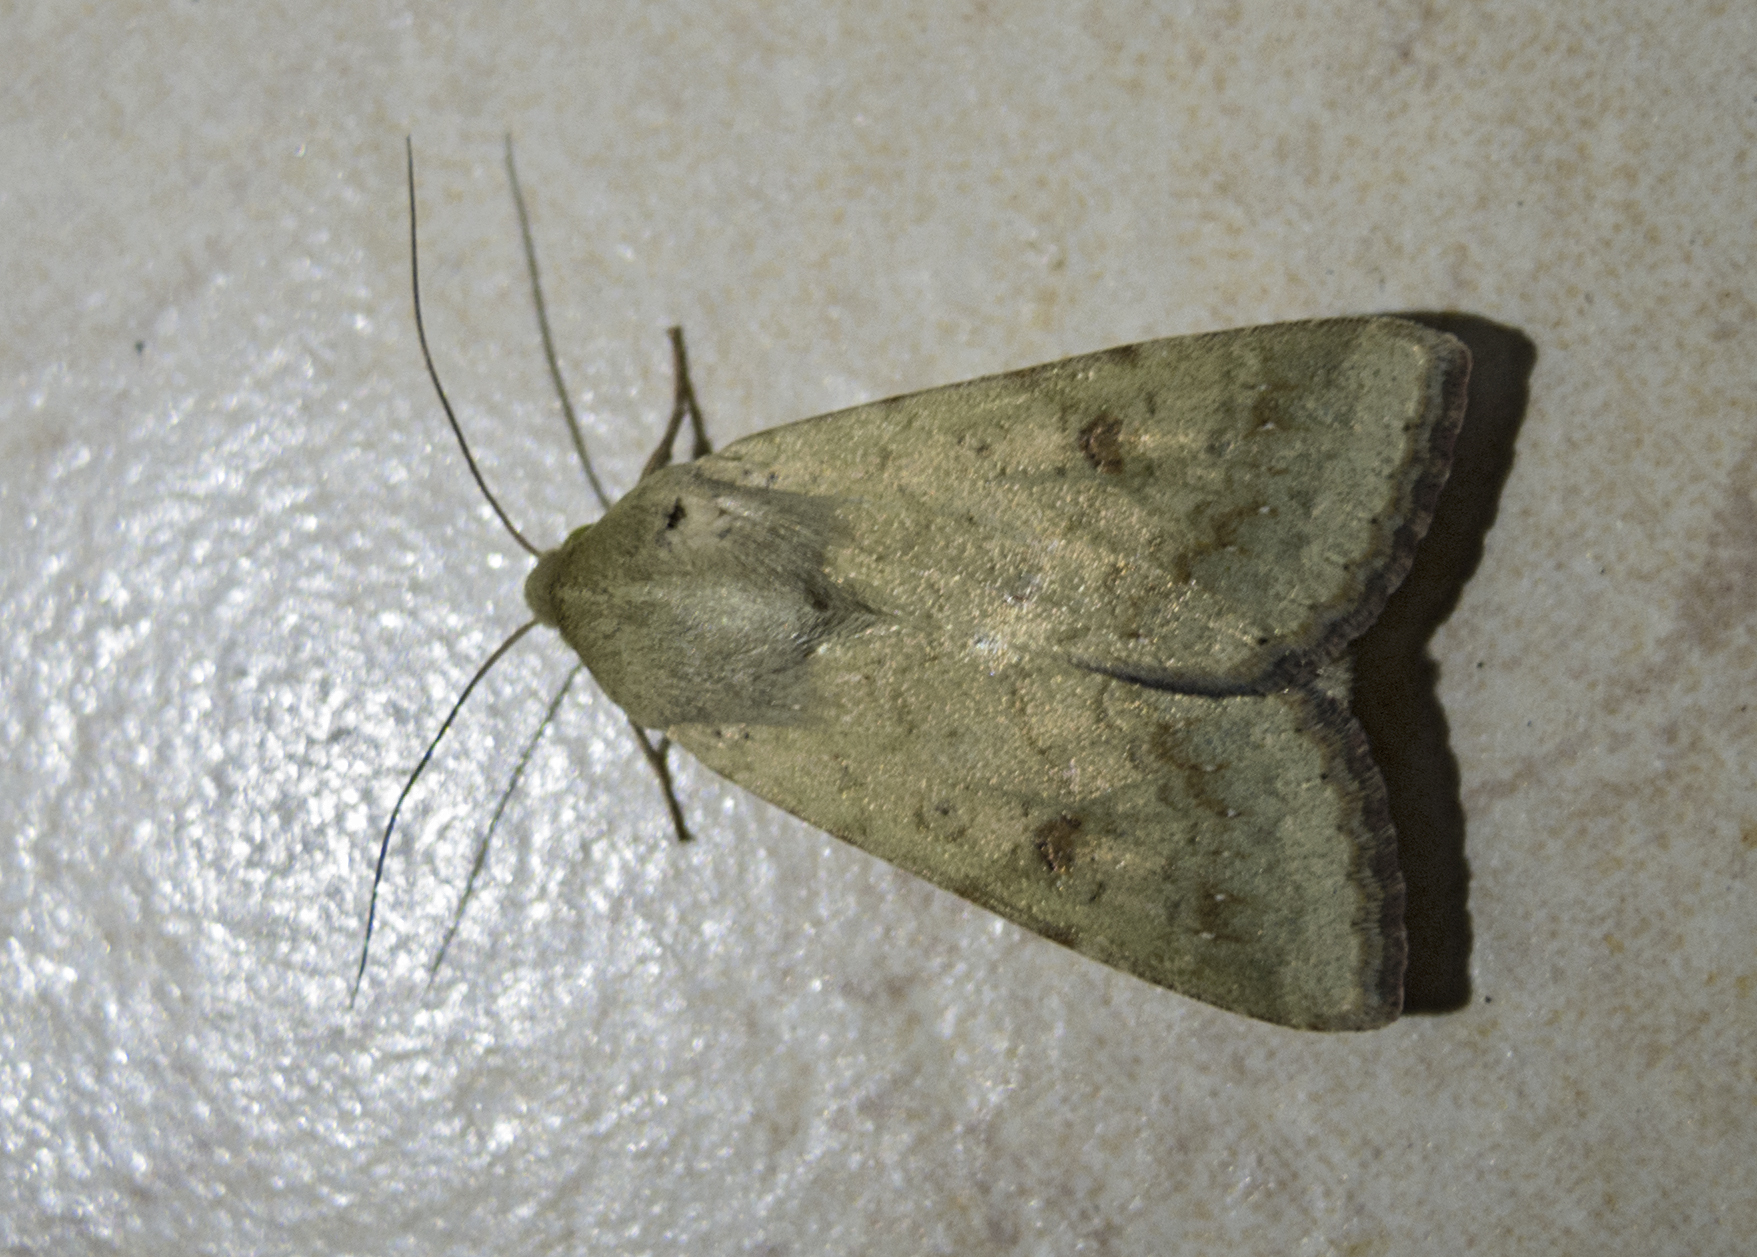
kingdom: Animalia
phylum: Arthropoda
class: Insecta
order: Lepidoptera
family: Noctuidae
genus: Helicoverpa
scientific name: Helicoverpa armigera
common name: Cotton bollworm
